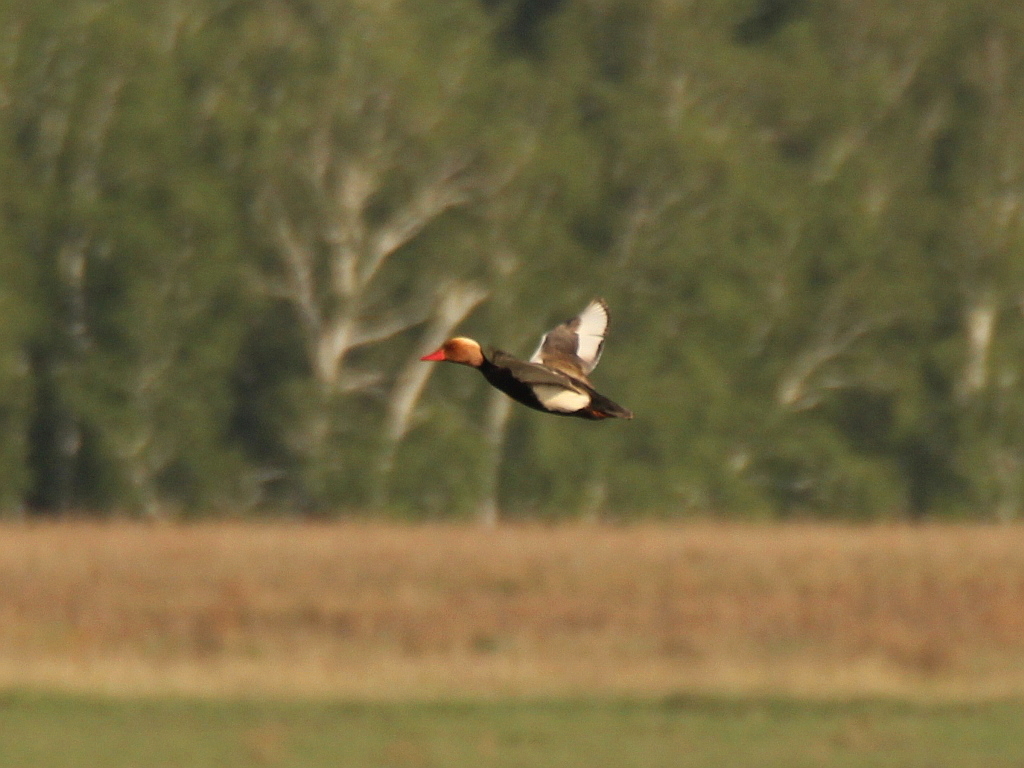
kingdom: Animalia
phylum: Chordata
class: Aves
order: Anseriformes
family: Anatidae
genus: Netta
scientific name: Netta rufina
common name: Red-crested pochard
